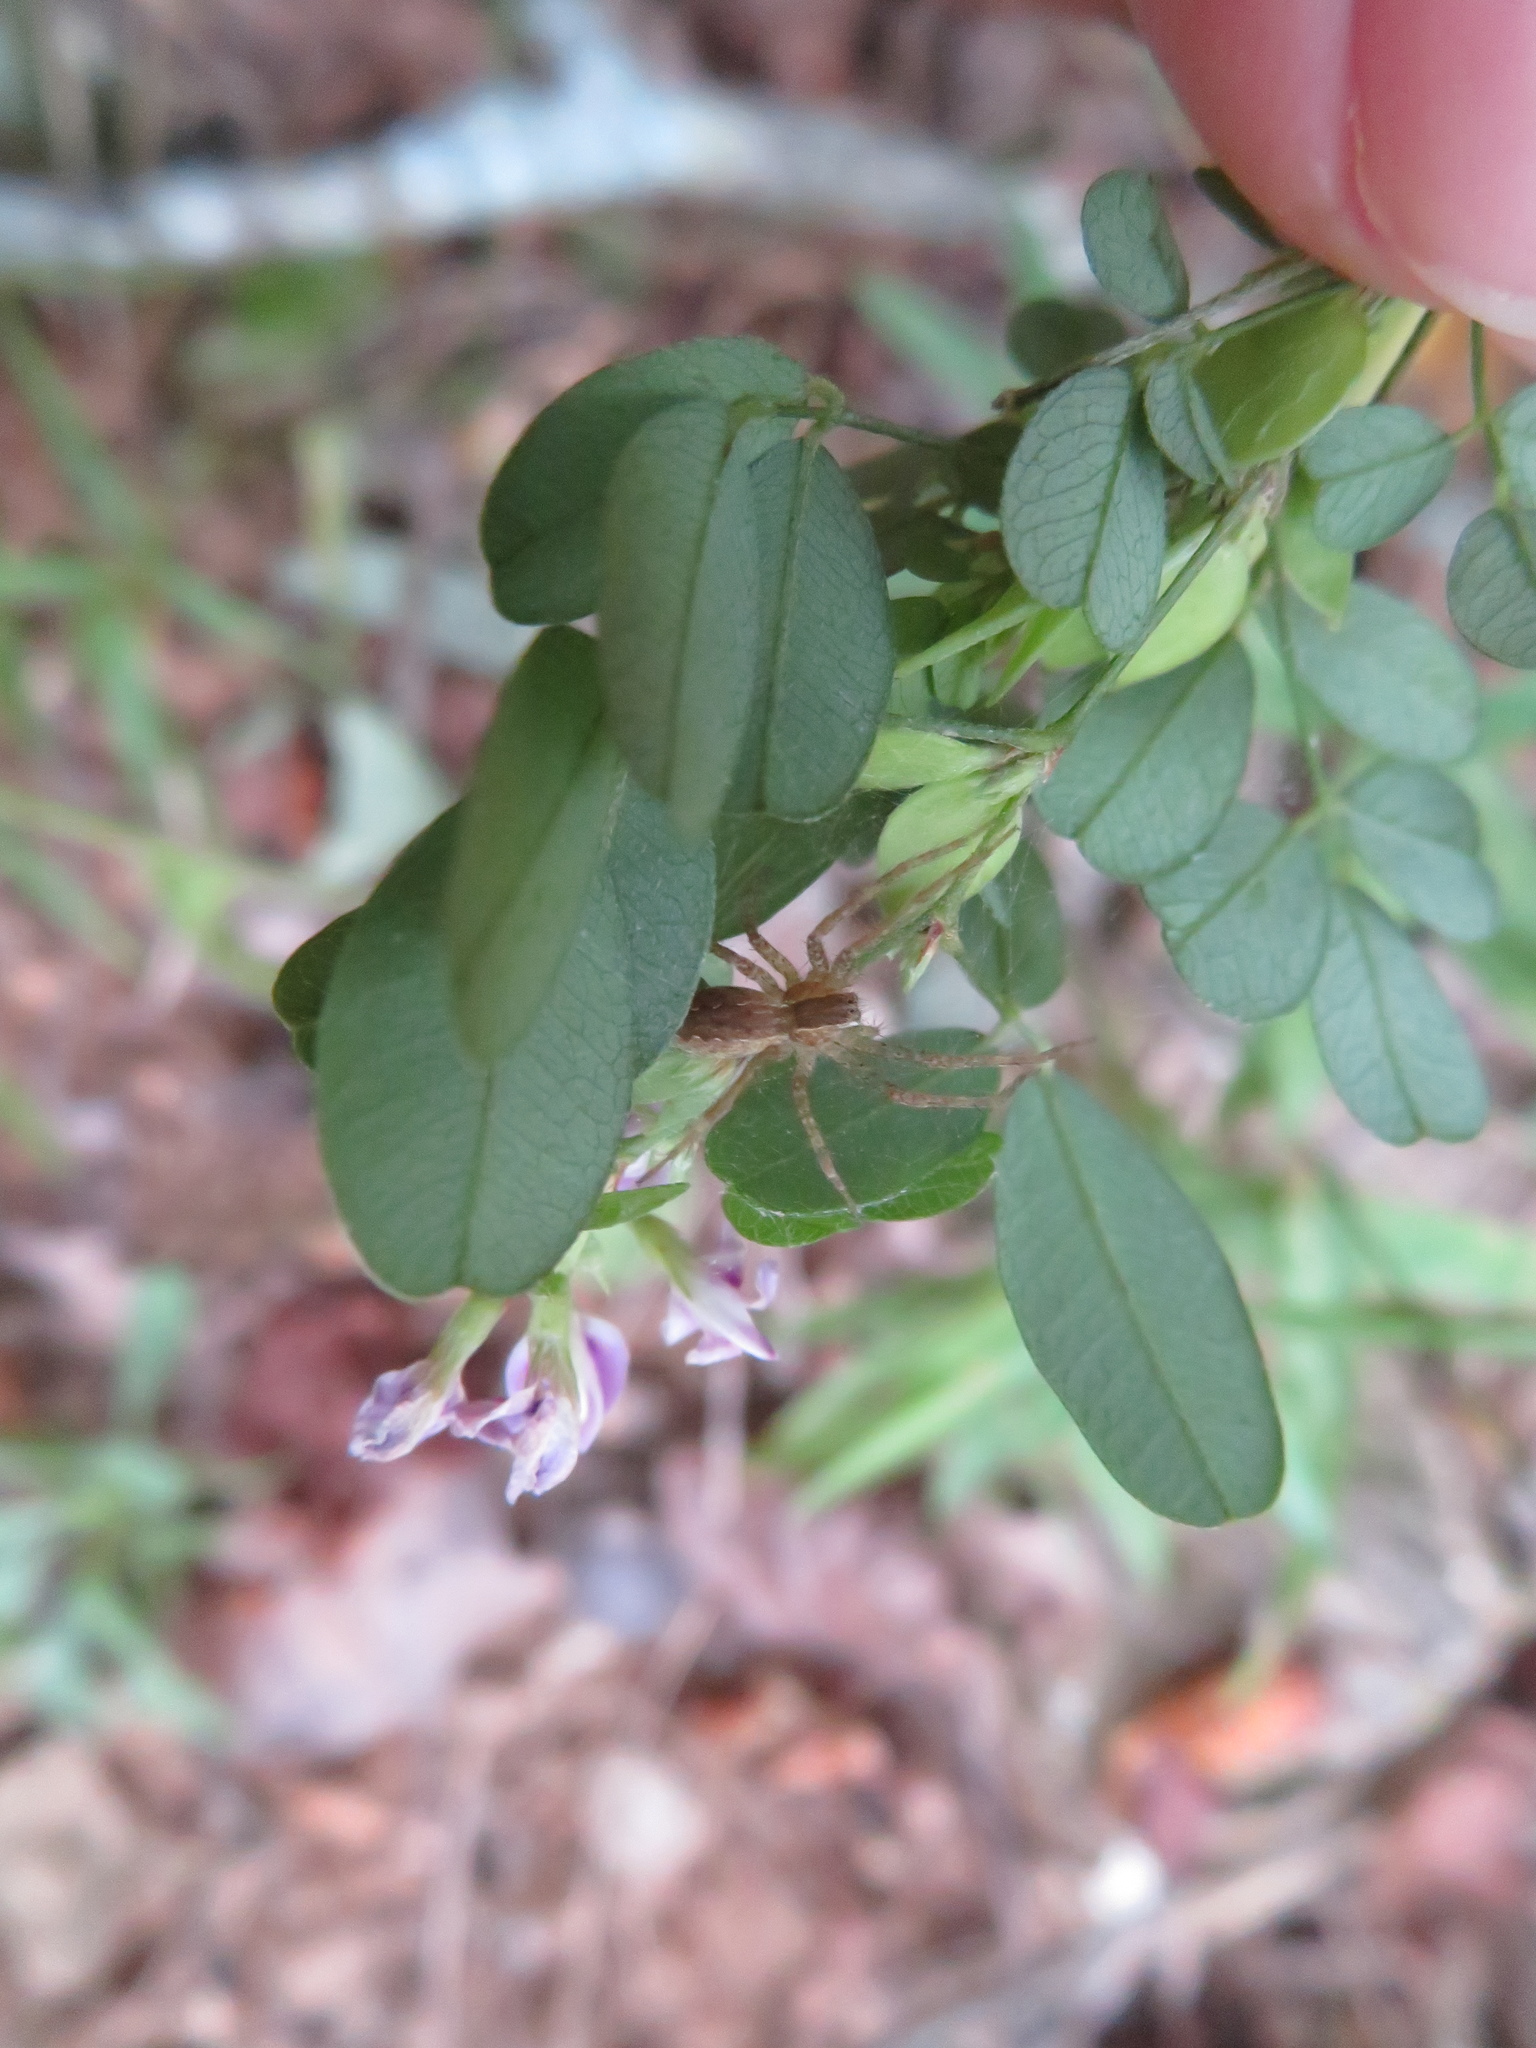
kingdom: Animalia
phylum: Arthropoda
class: Arachnida
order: Araneae
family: Pisauridae
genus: Pisaurina
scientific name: Pisaurina mira
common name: American nursery web spider
